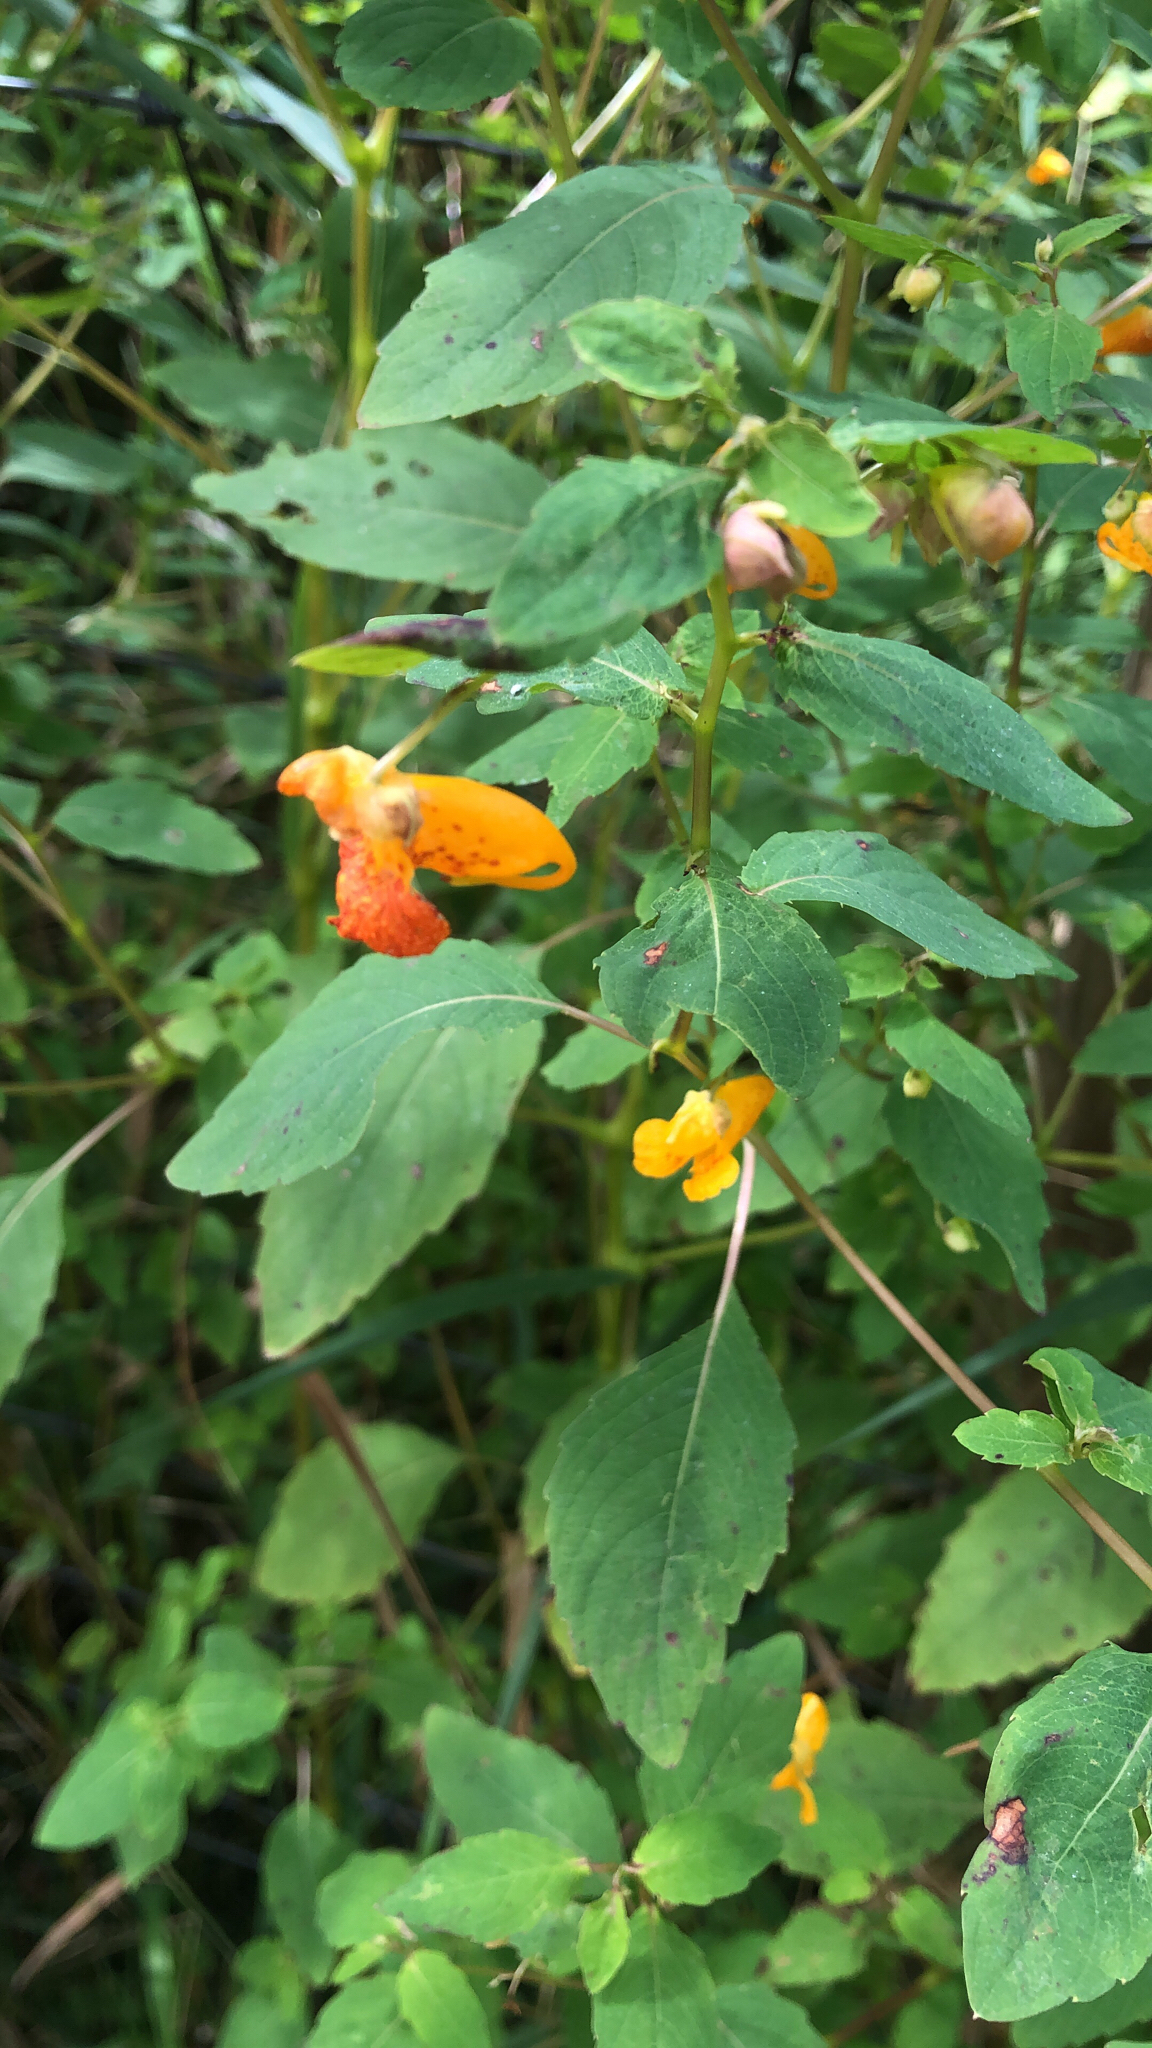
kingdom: Plantae
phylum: Tracheophyta
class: Magnoliopsida
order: Ericales
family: Balsaminaceae
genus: Impatiens
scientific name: Impatiens capensis
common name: Orange balsam
